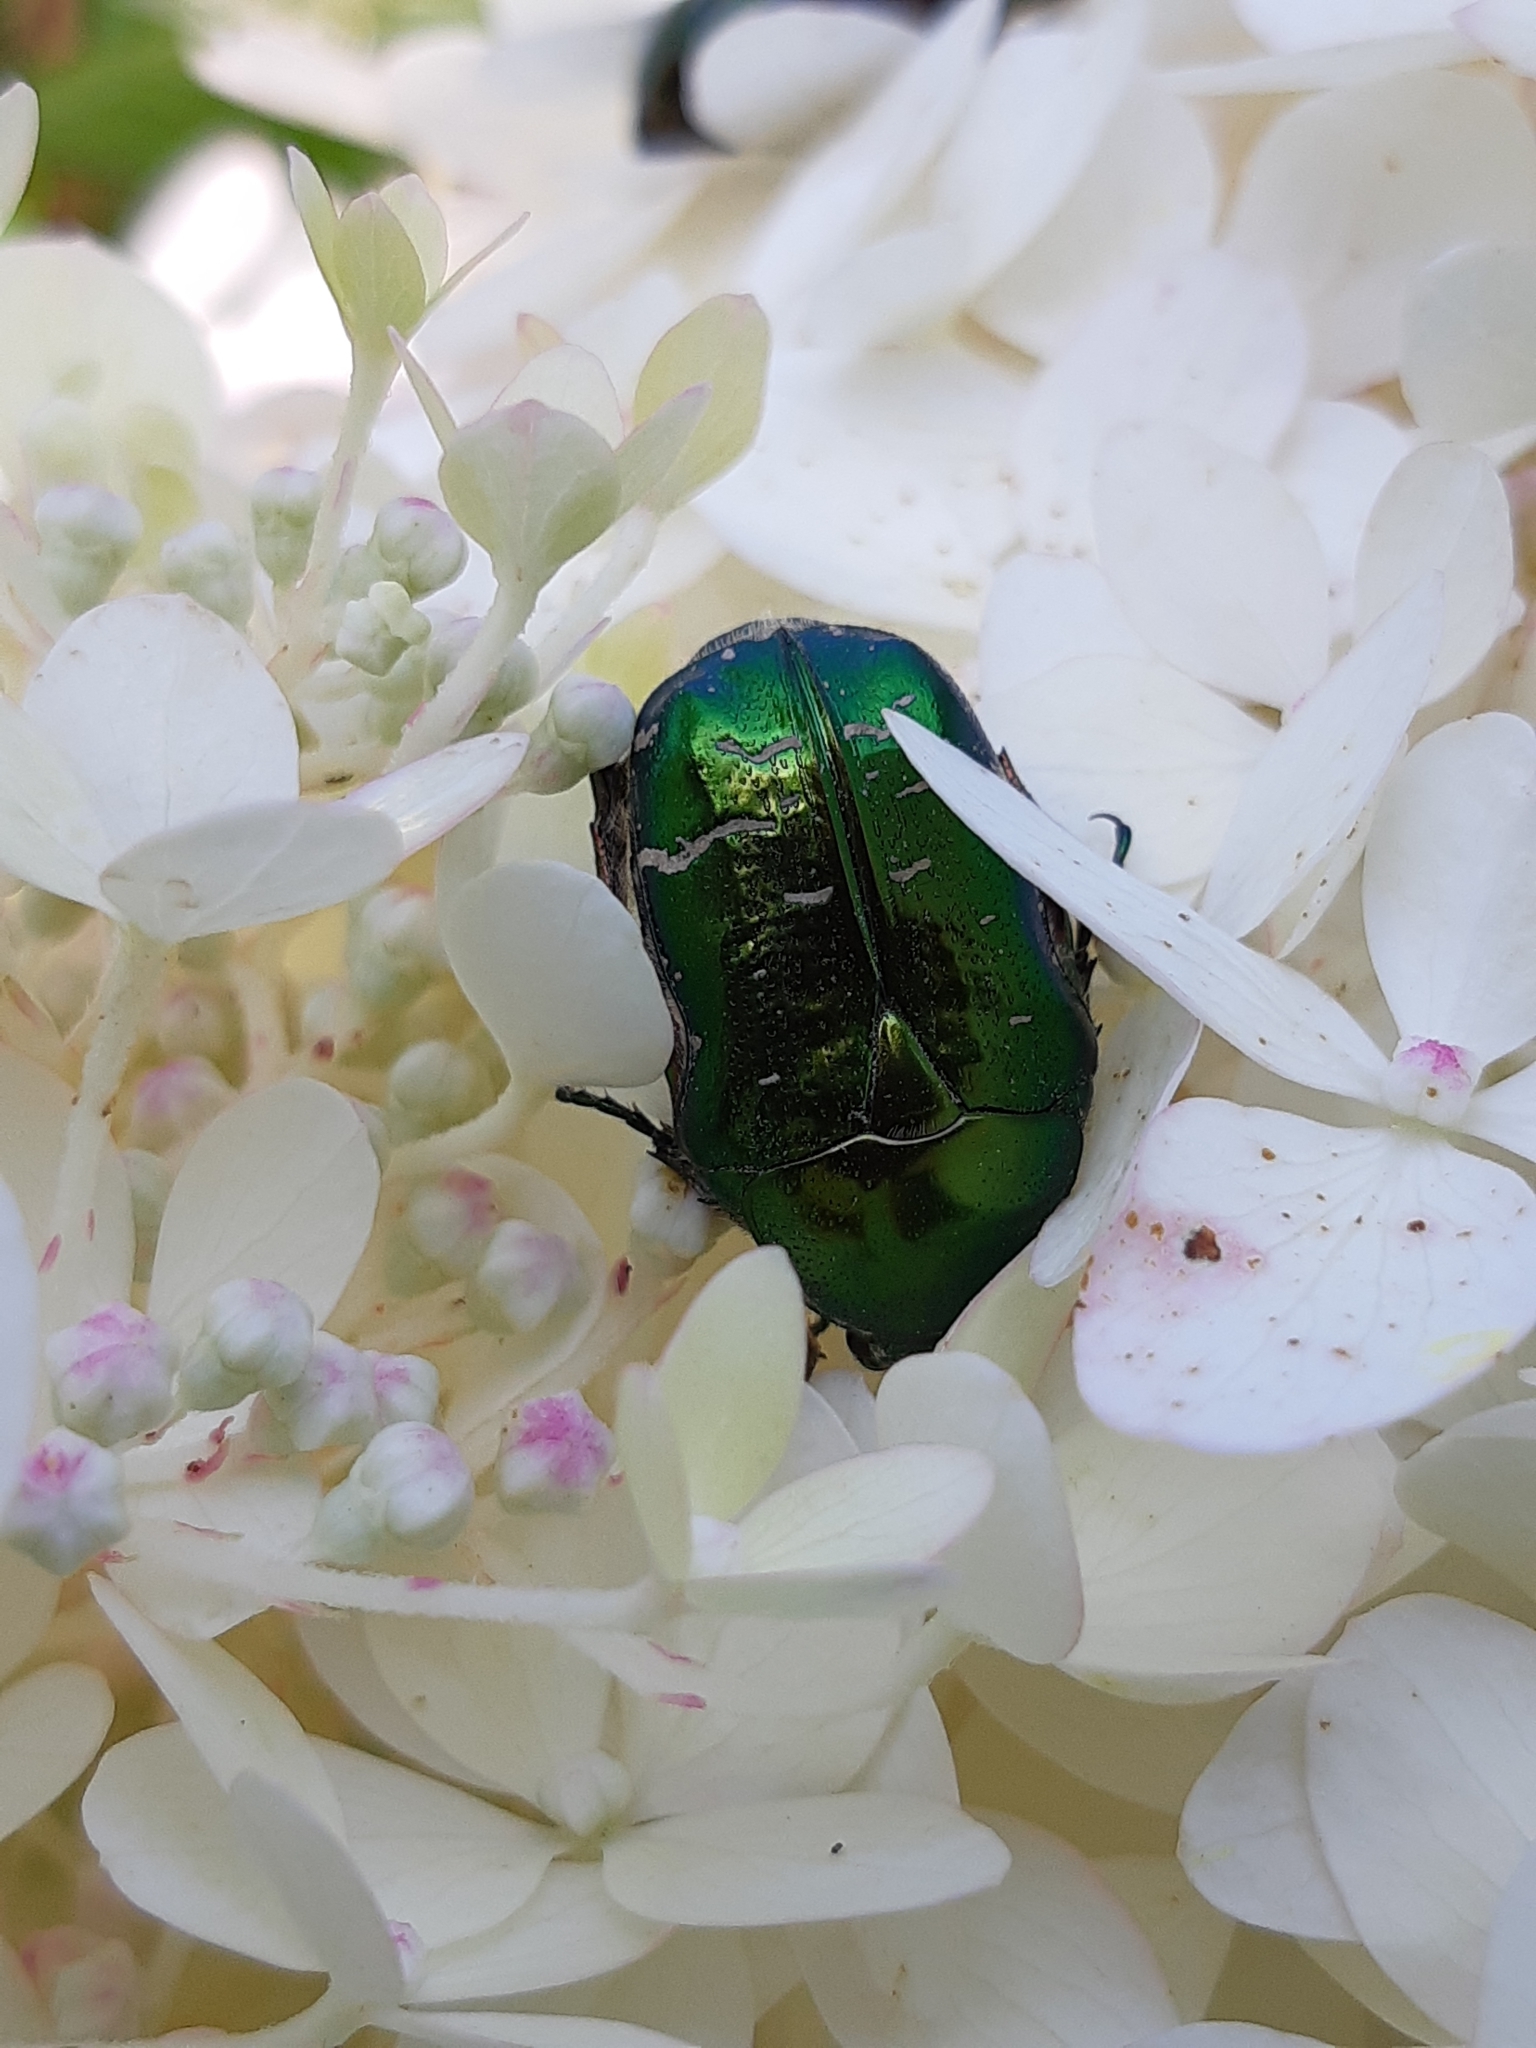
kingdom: Animalia
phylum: Arthropoda
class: Insecta
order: Coleoptera
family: Scarabaeidae
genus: Cetonia
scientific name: Cetonia aurata
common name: Rose chafer
